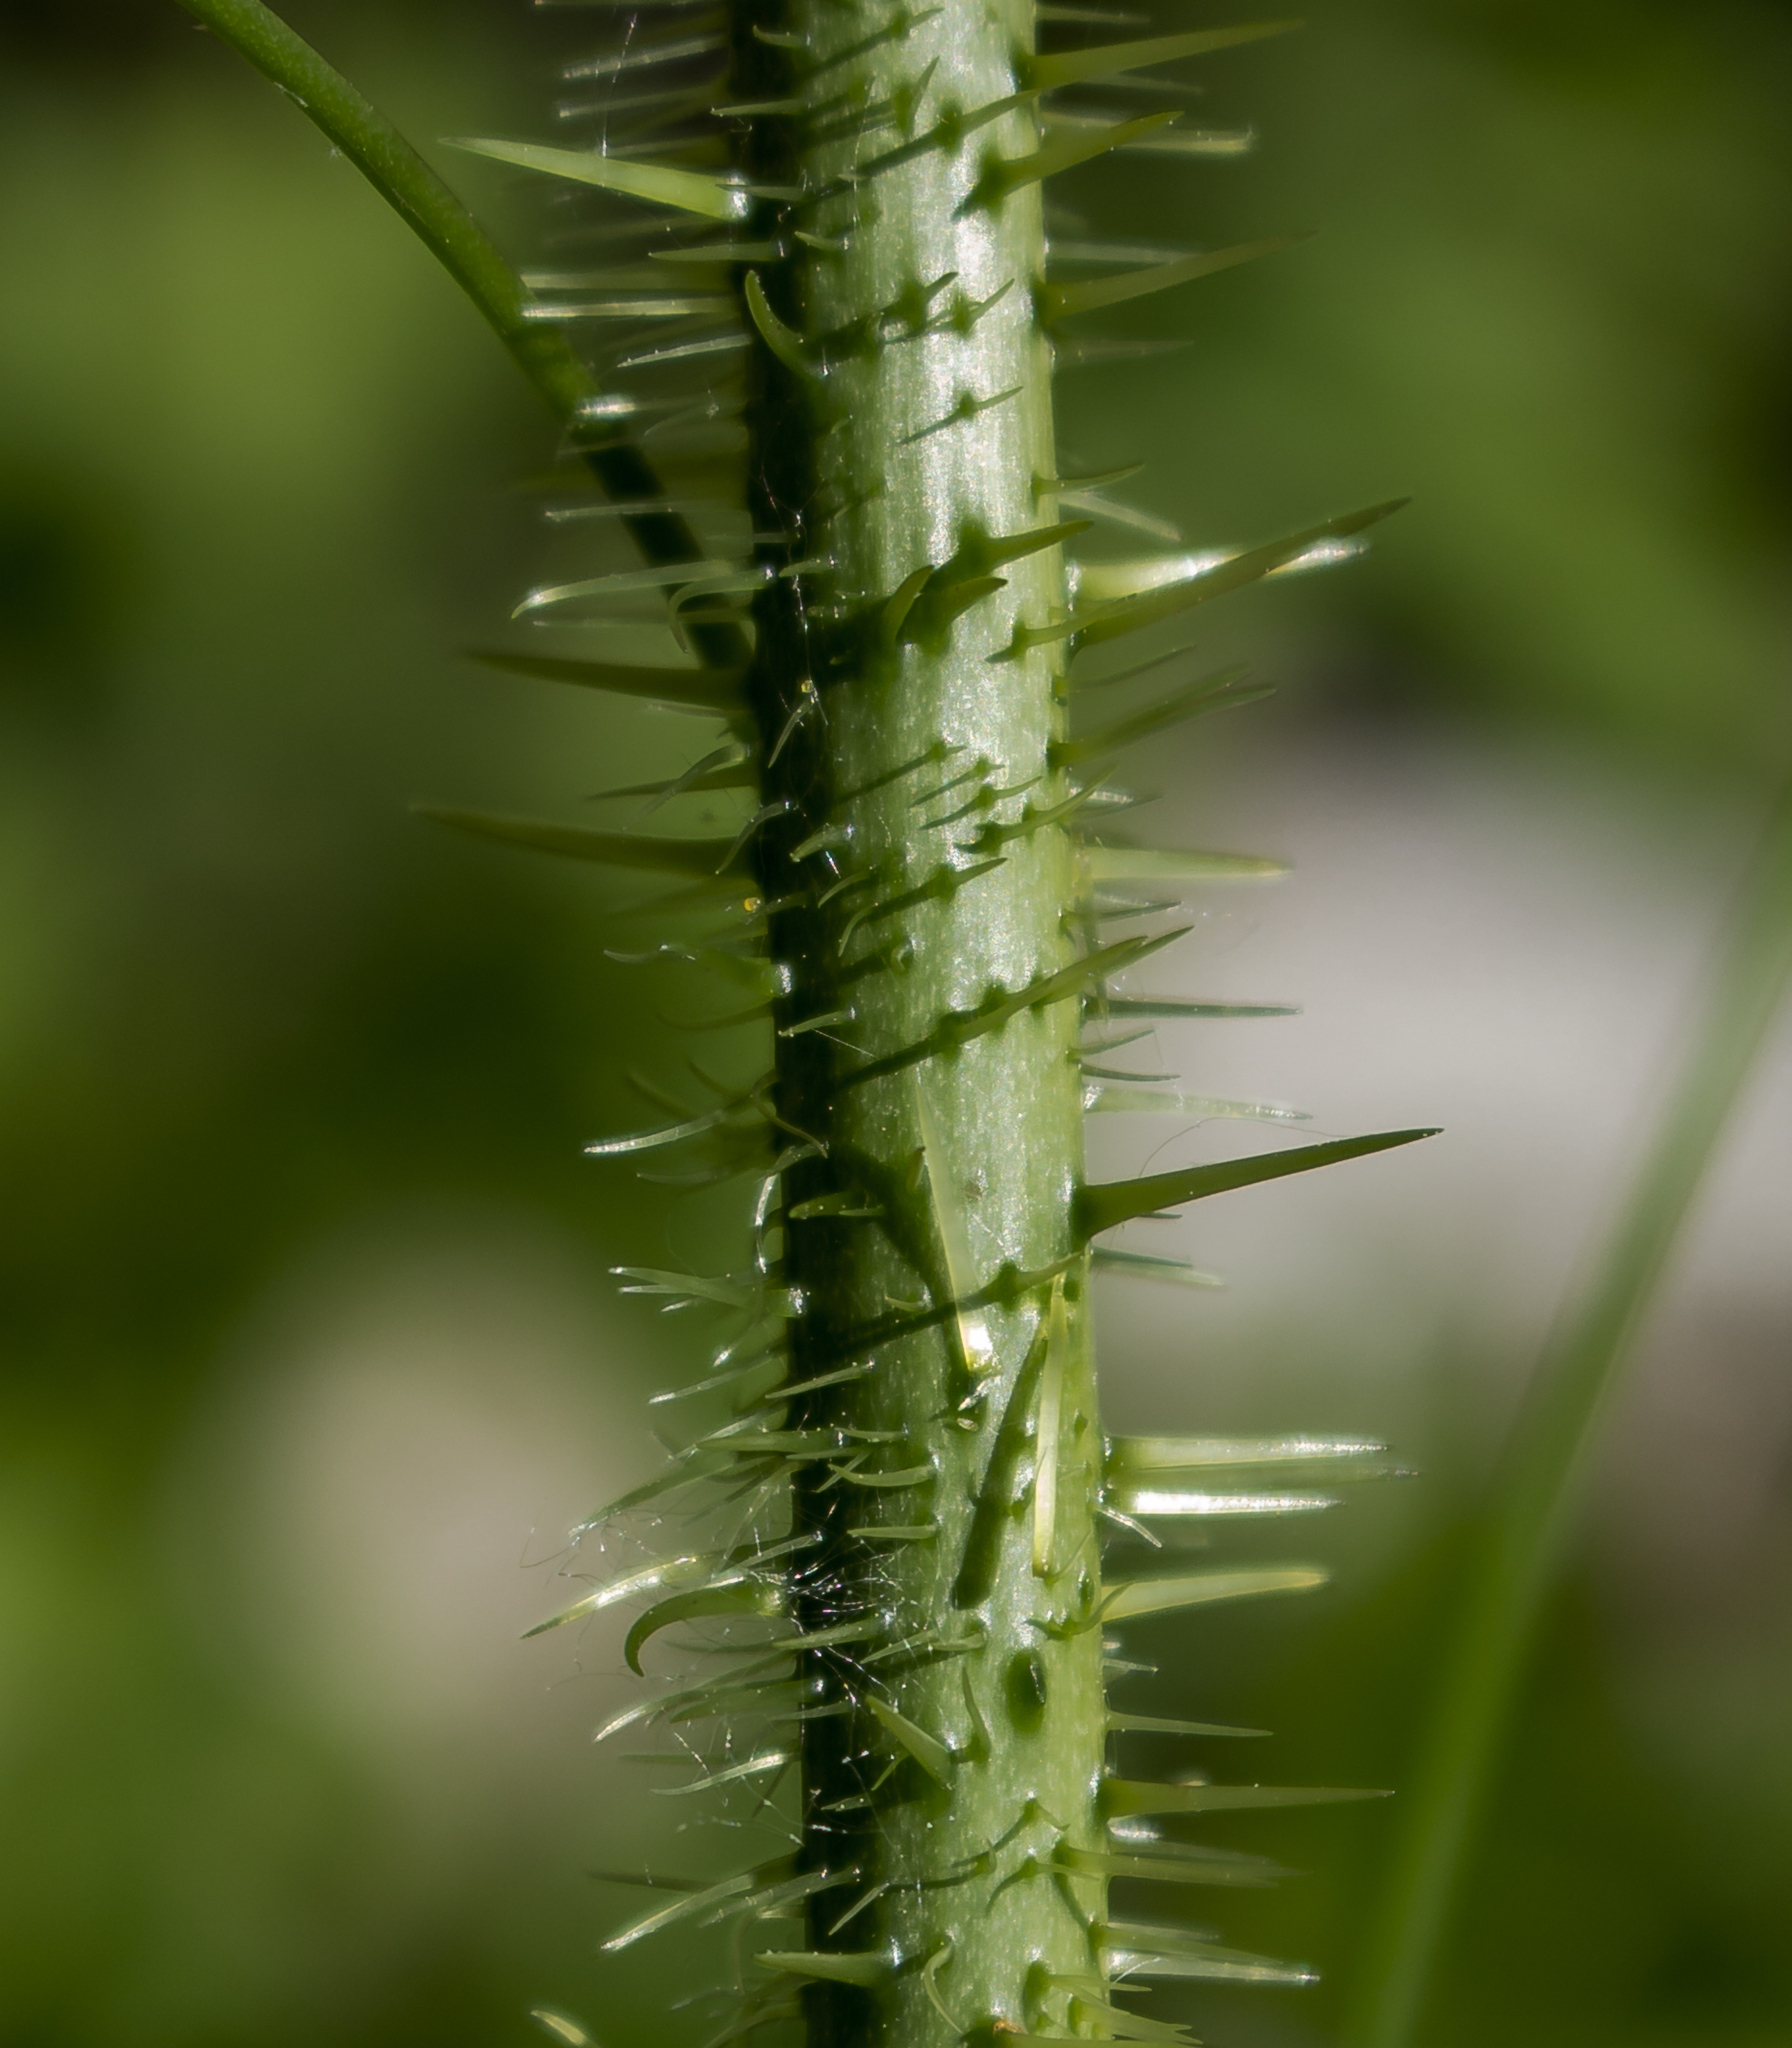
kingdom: Plantae
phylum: Tracheophyta
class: Liliopsida
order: Liliales
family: Smilacaceae
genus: Smilax
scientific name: Smilax tamnoides
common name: Hellfetter
